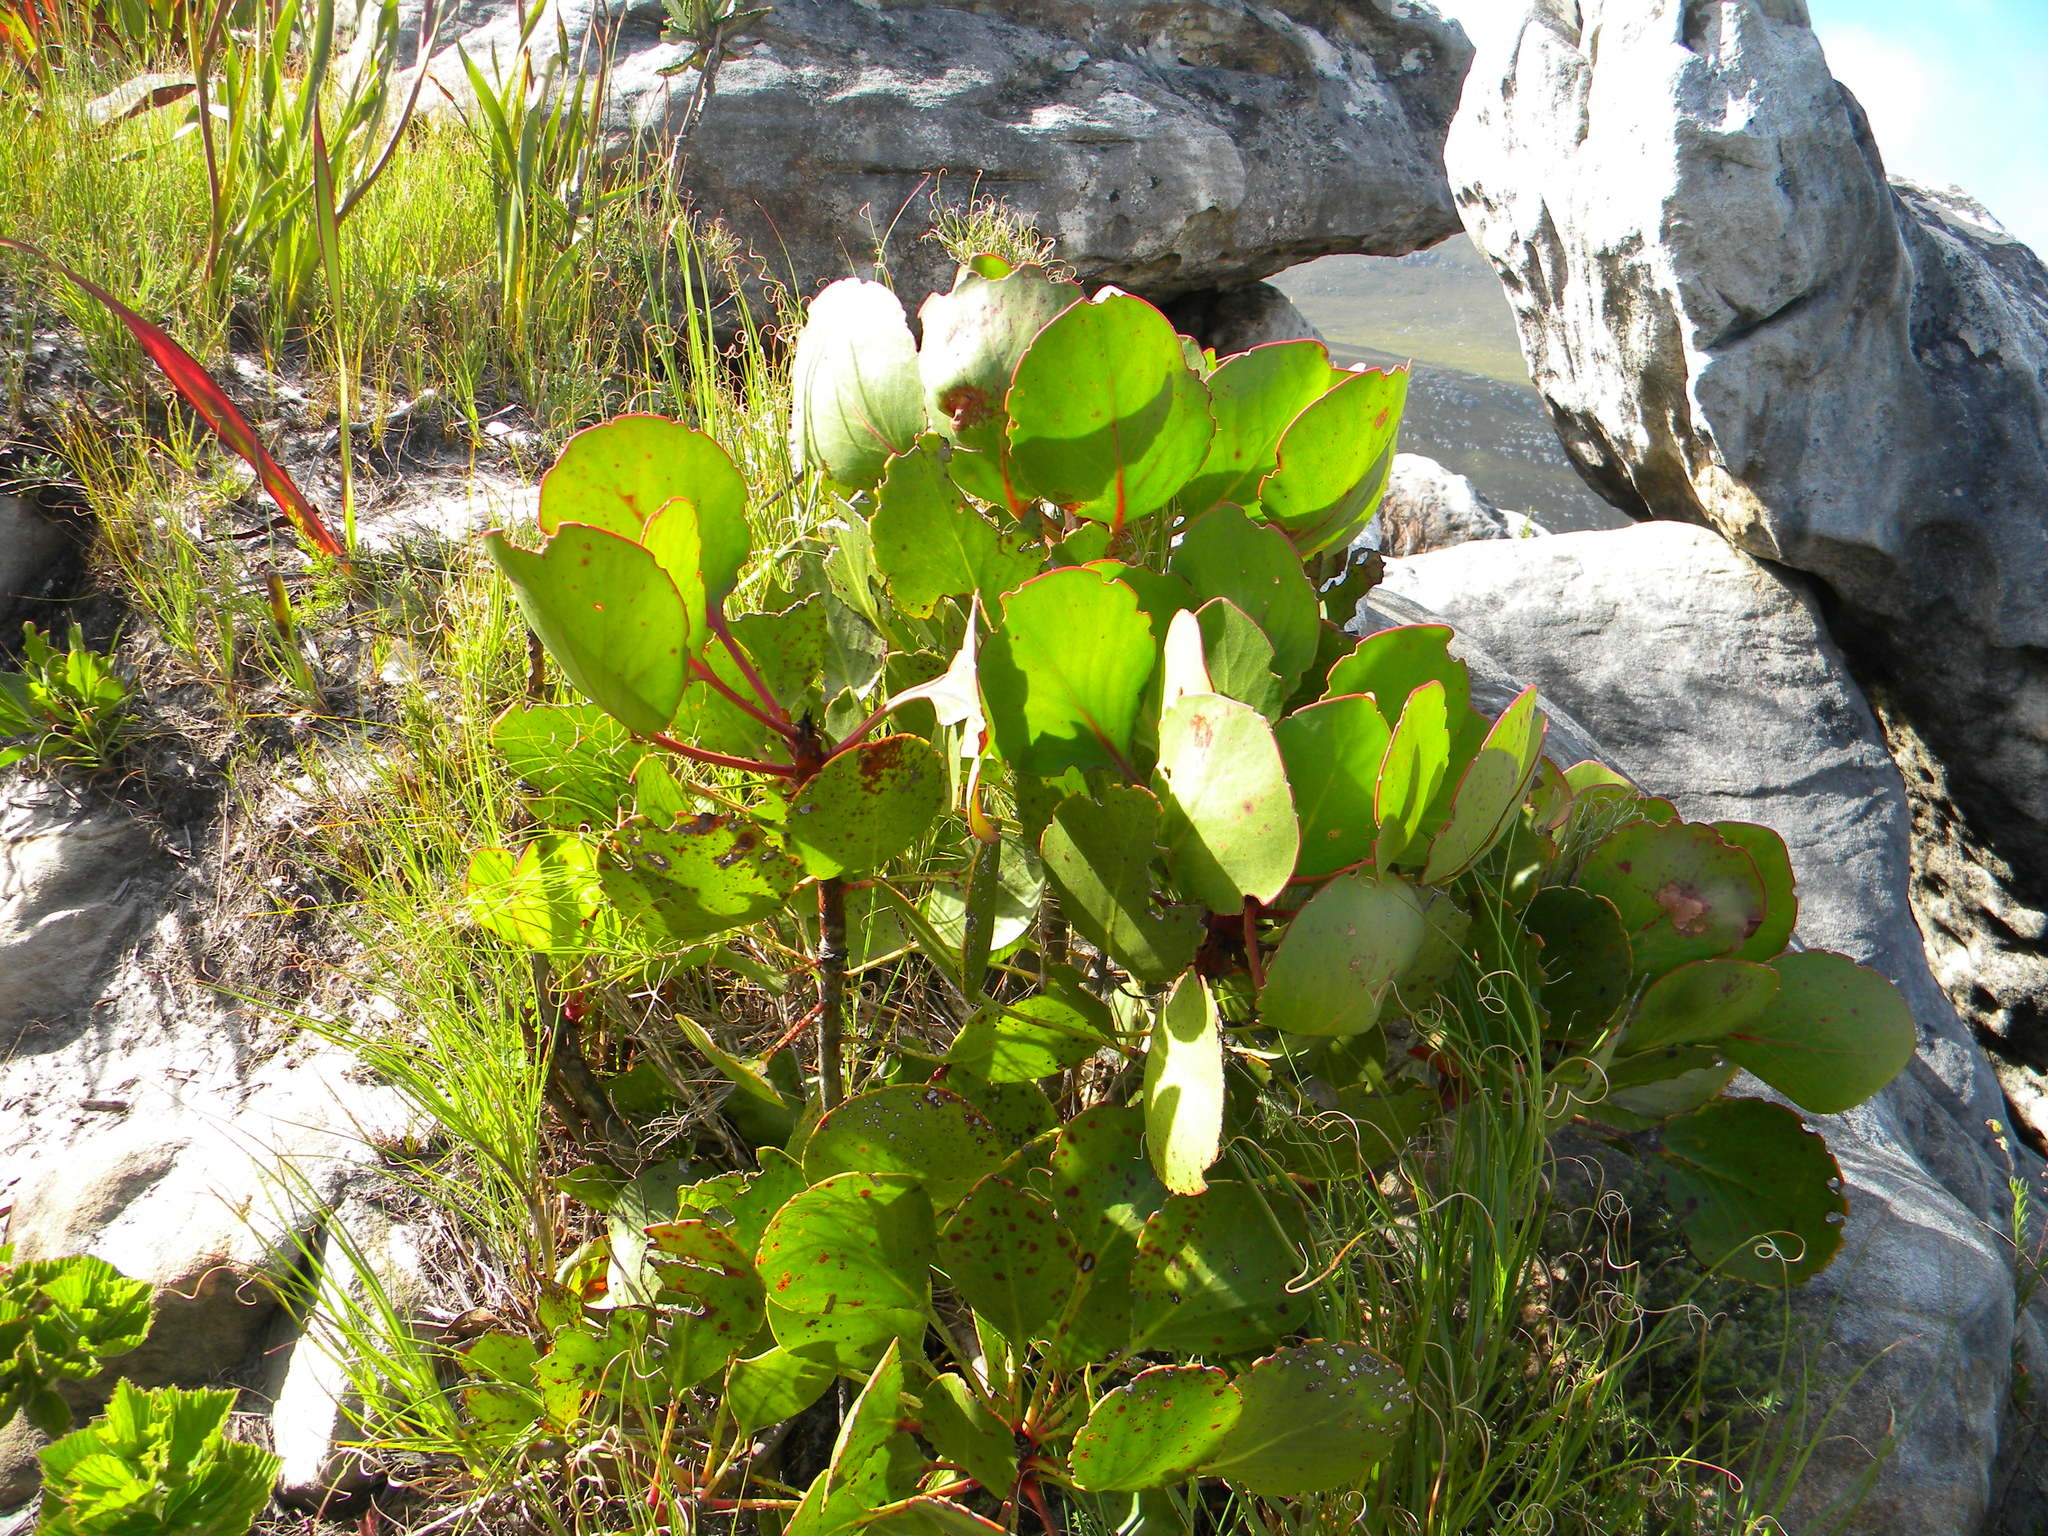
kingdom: Plantae
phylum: Tracheophyta
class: Magnoliopsida
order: Proteales
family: Proteaceae
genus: Protea
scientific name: Protea cynaroides
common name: King protea
